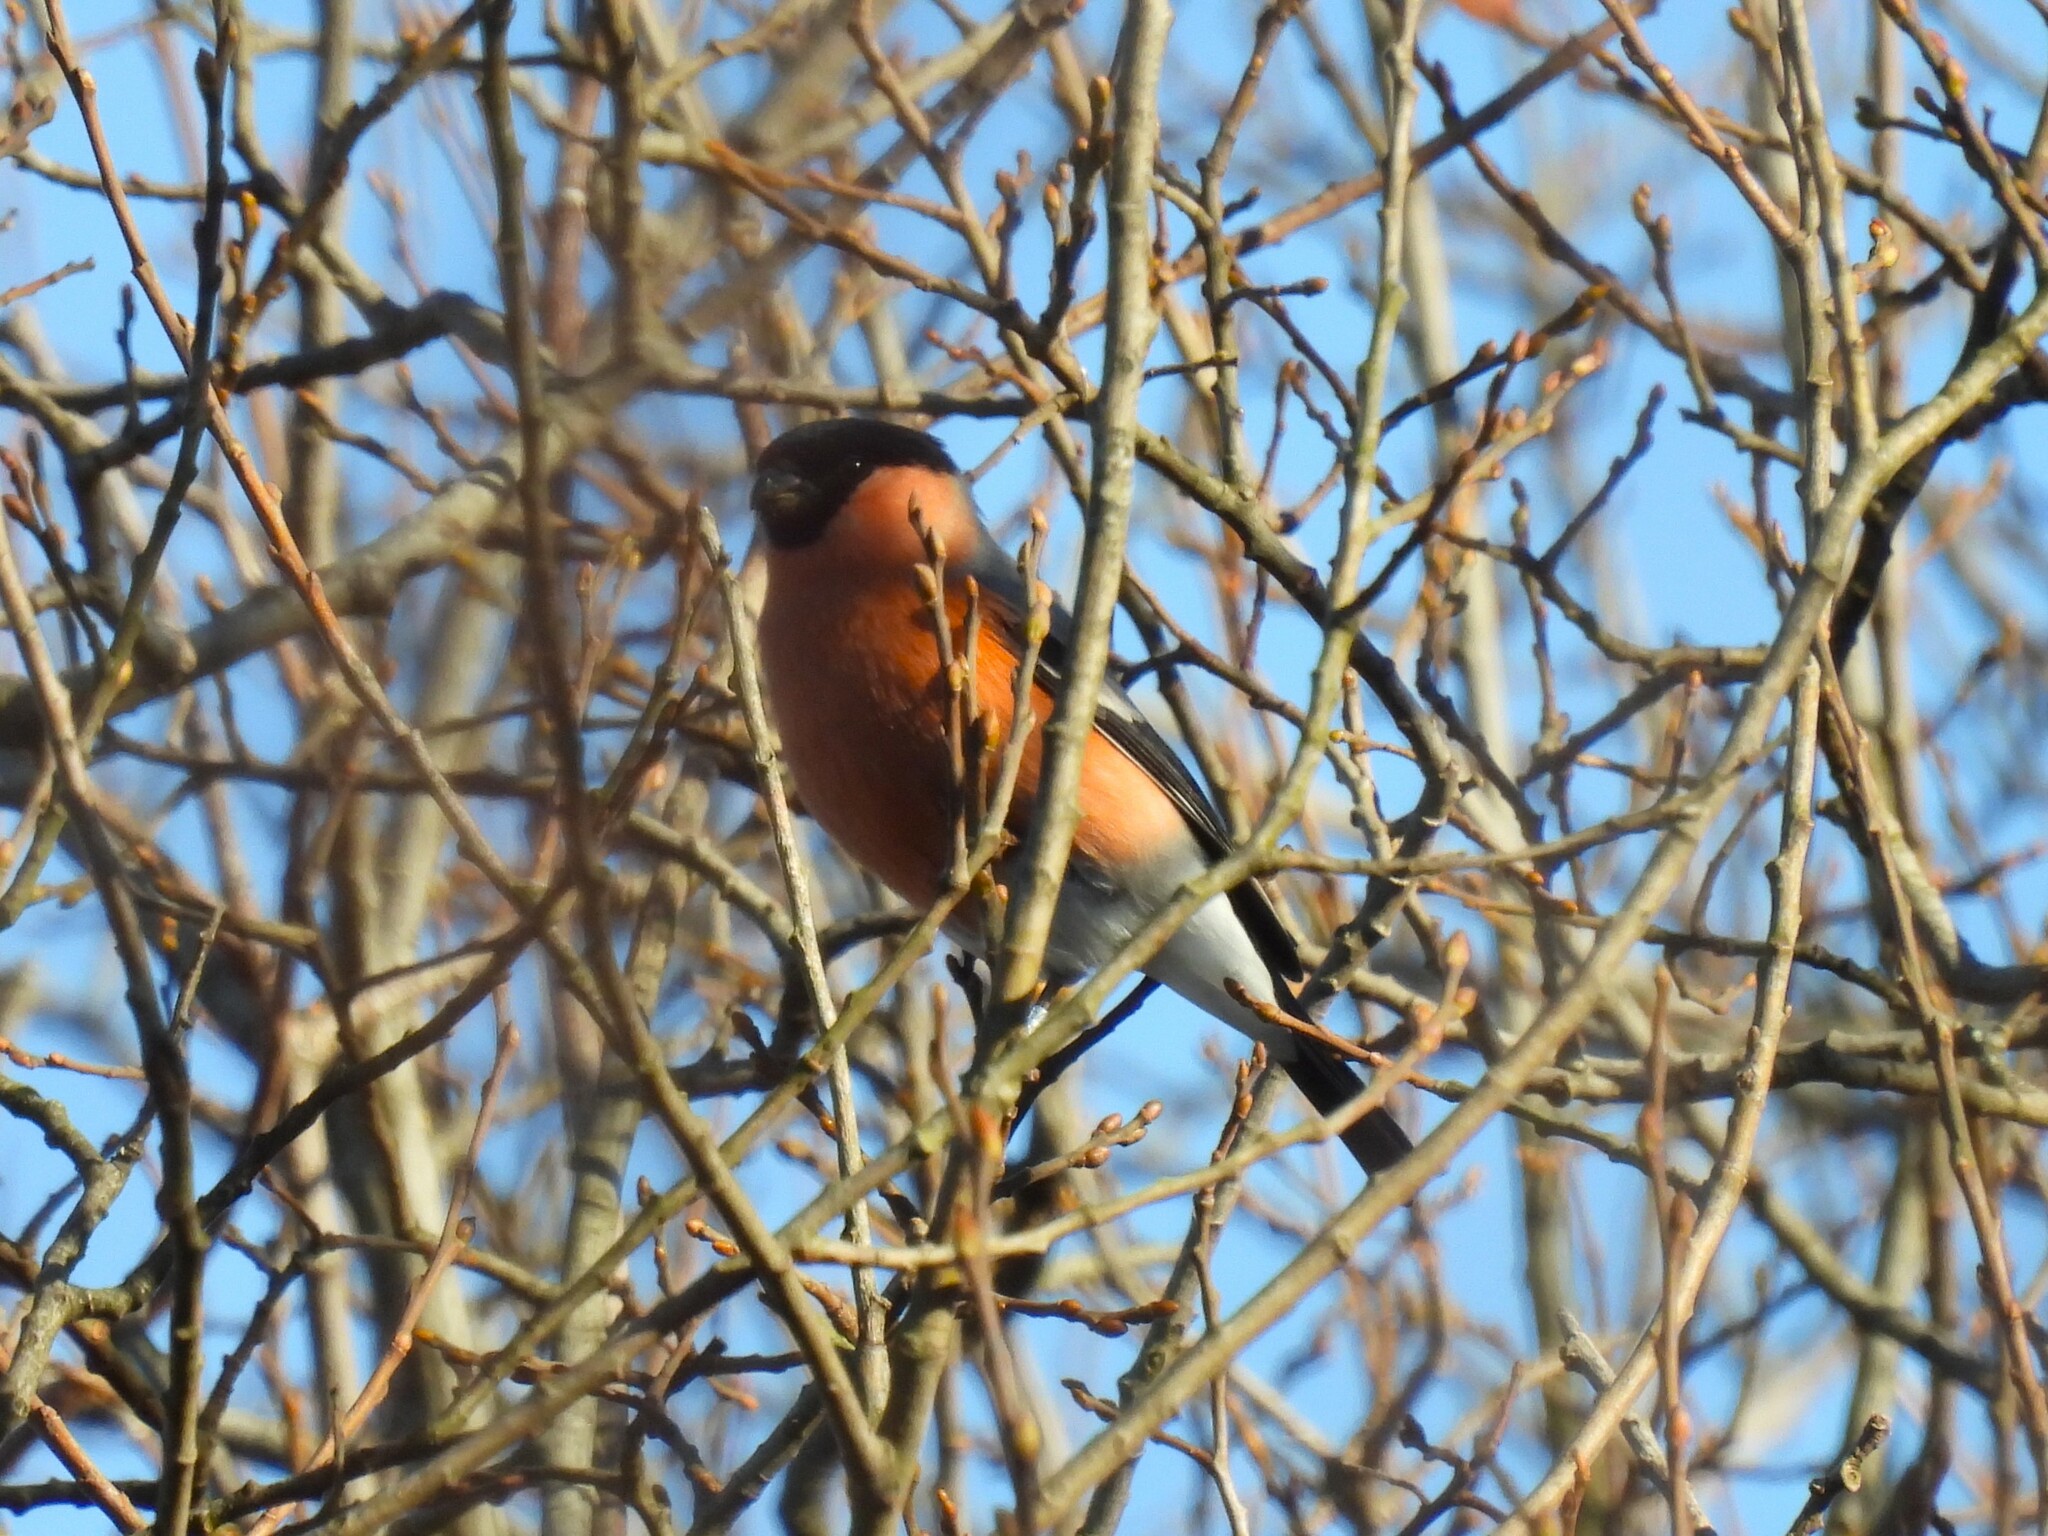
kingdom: Animalia
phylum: Chordata
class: Aves
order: Passeriformes
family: Fringillidae
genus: Pyrrhula
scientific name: Pyrrhula pyrrhula
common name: Eurasian bullfinch
